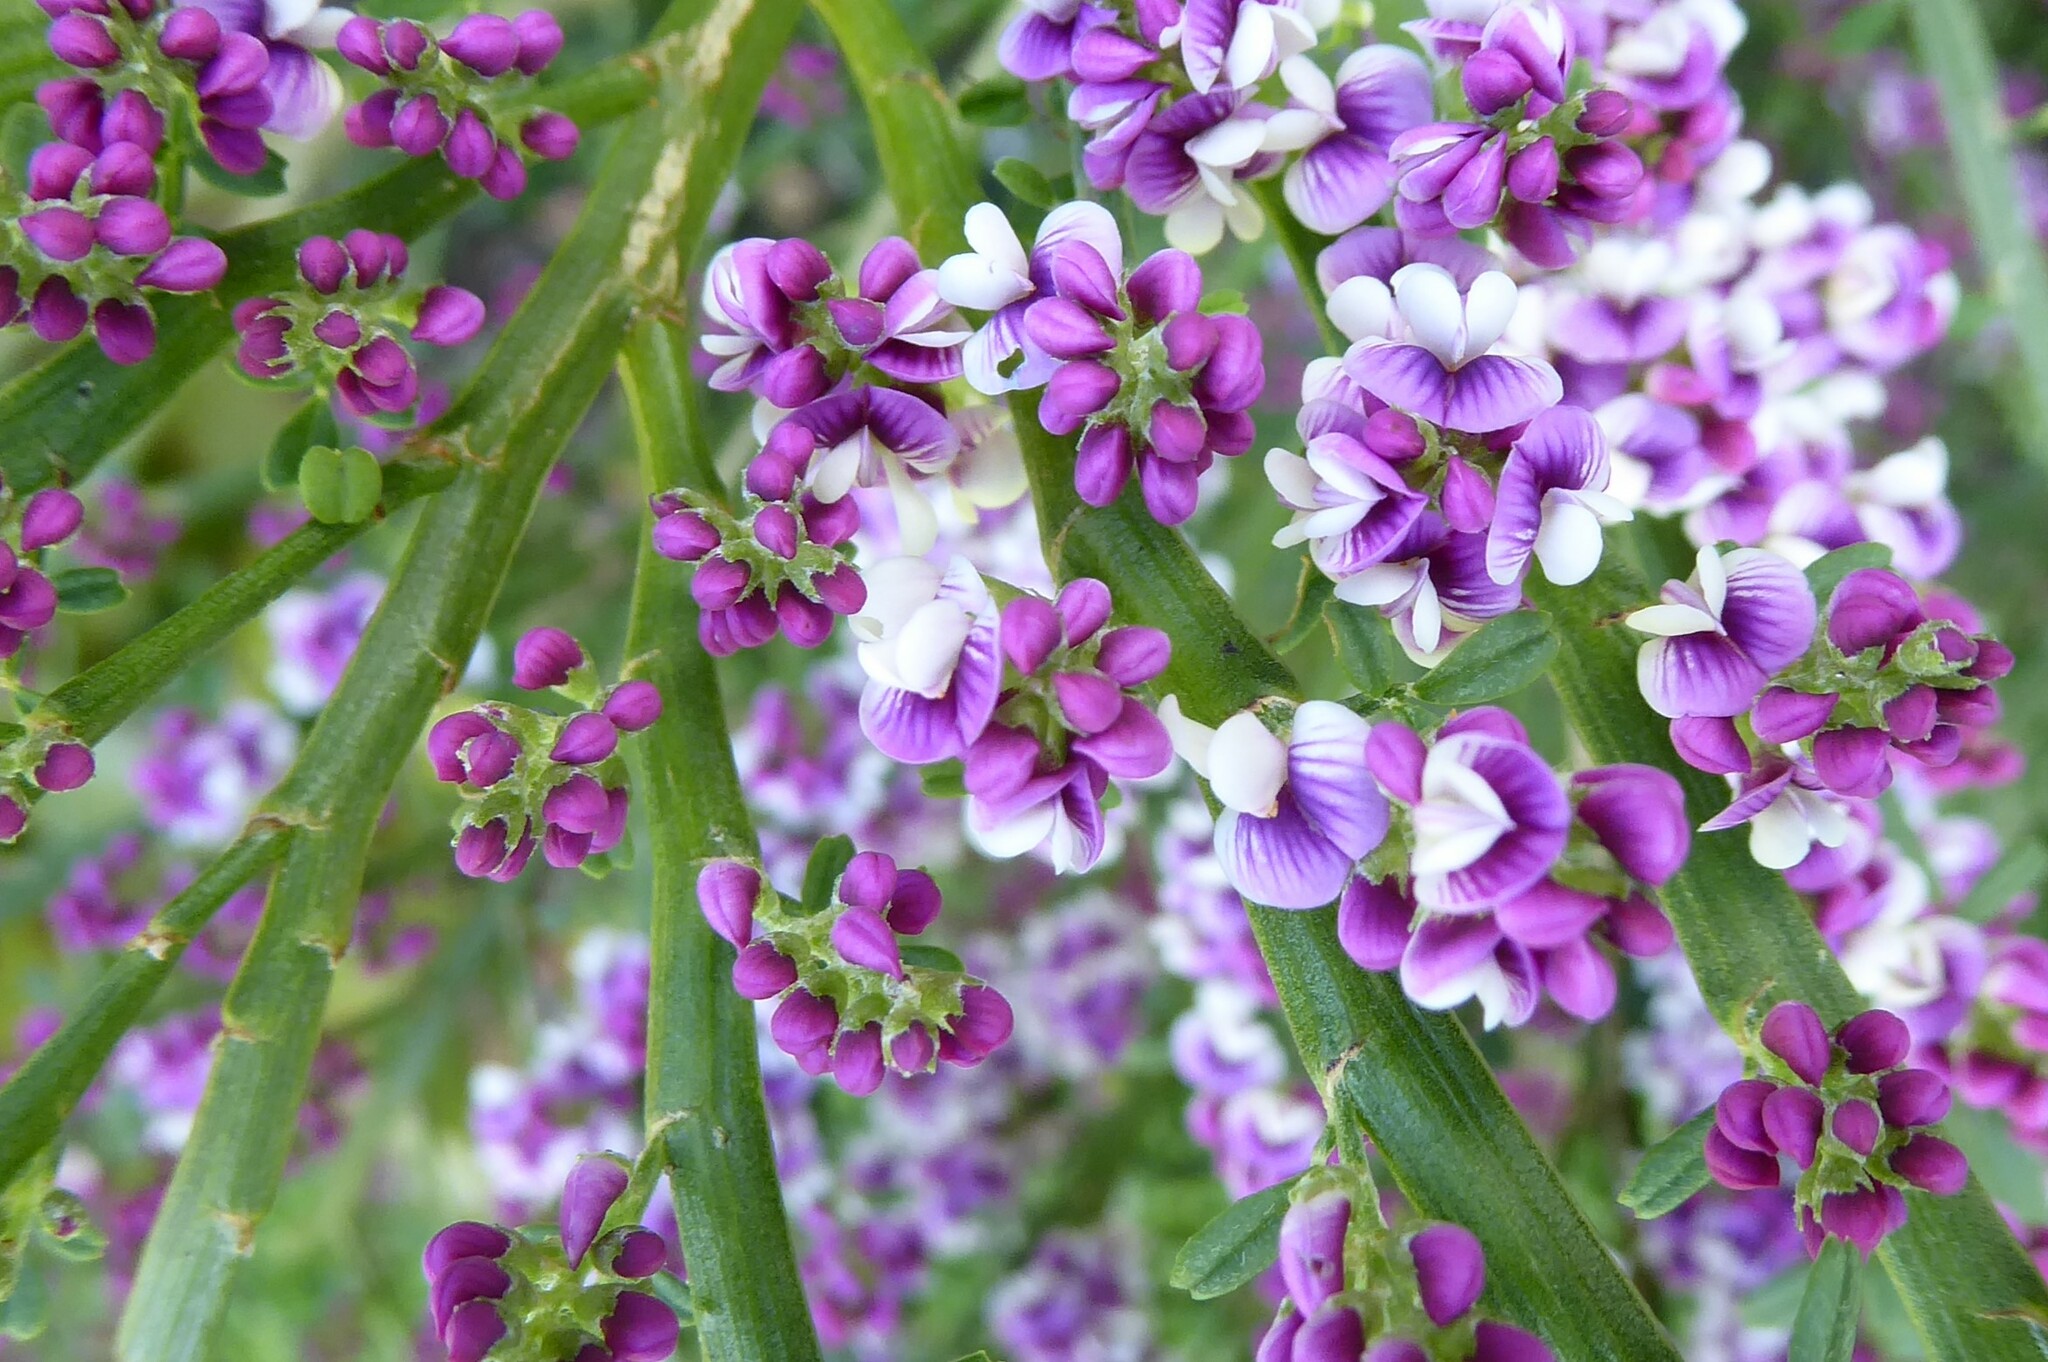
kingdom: Plantae
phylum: Tracheophyta
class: Magnoliopsida
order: Fabales
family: Fabaceae
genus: Carmichaelia
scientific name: Carmichaelia odorata
